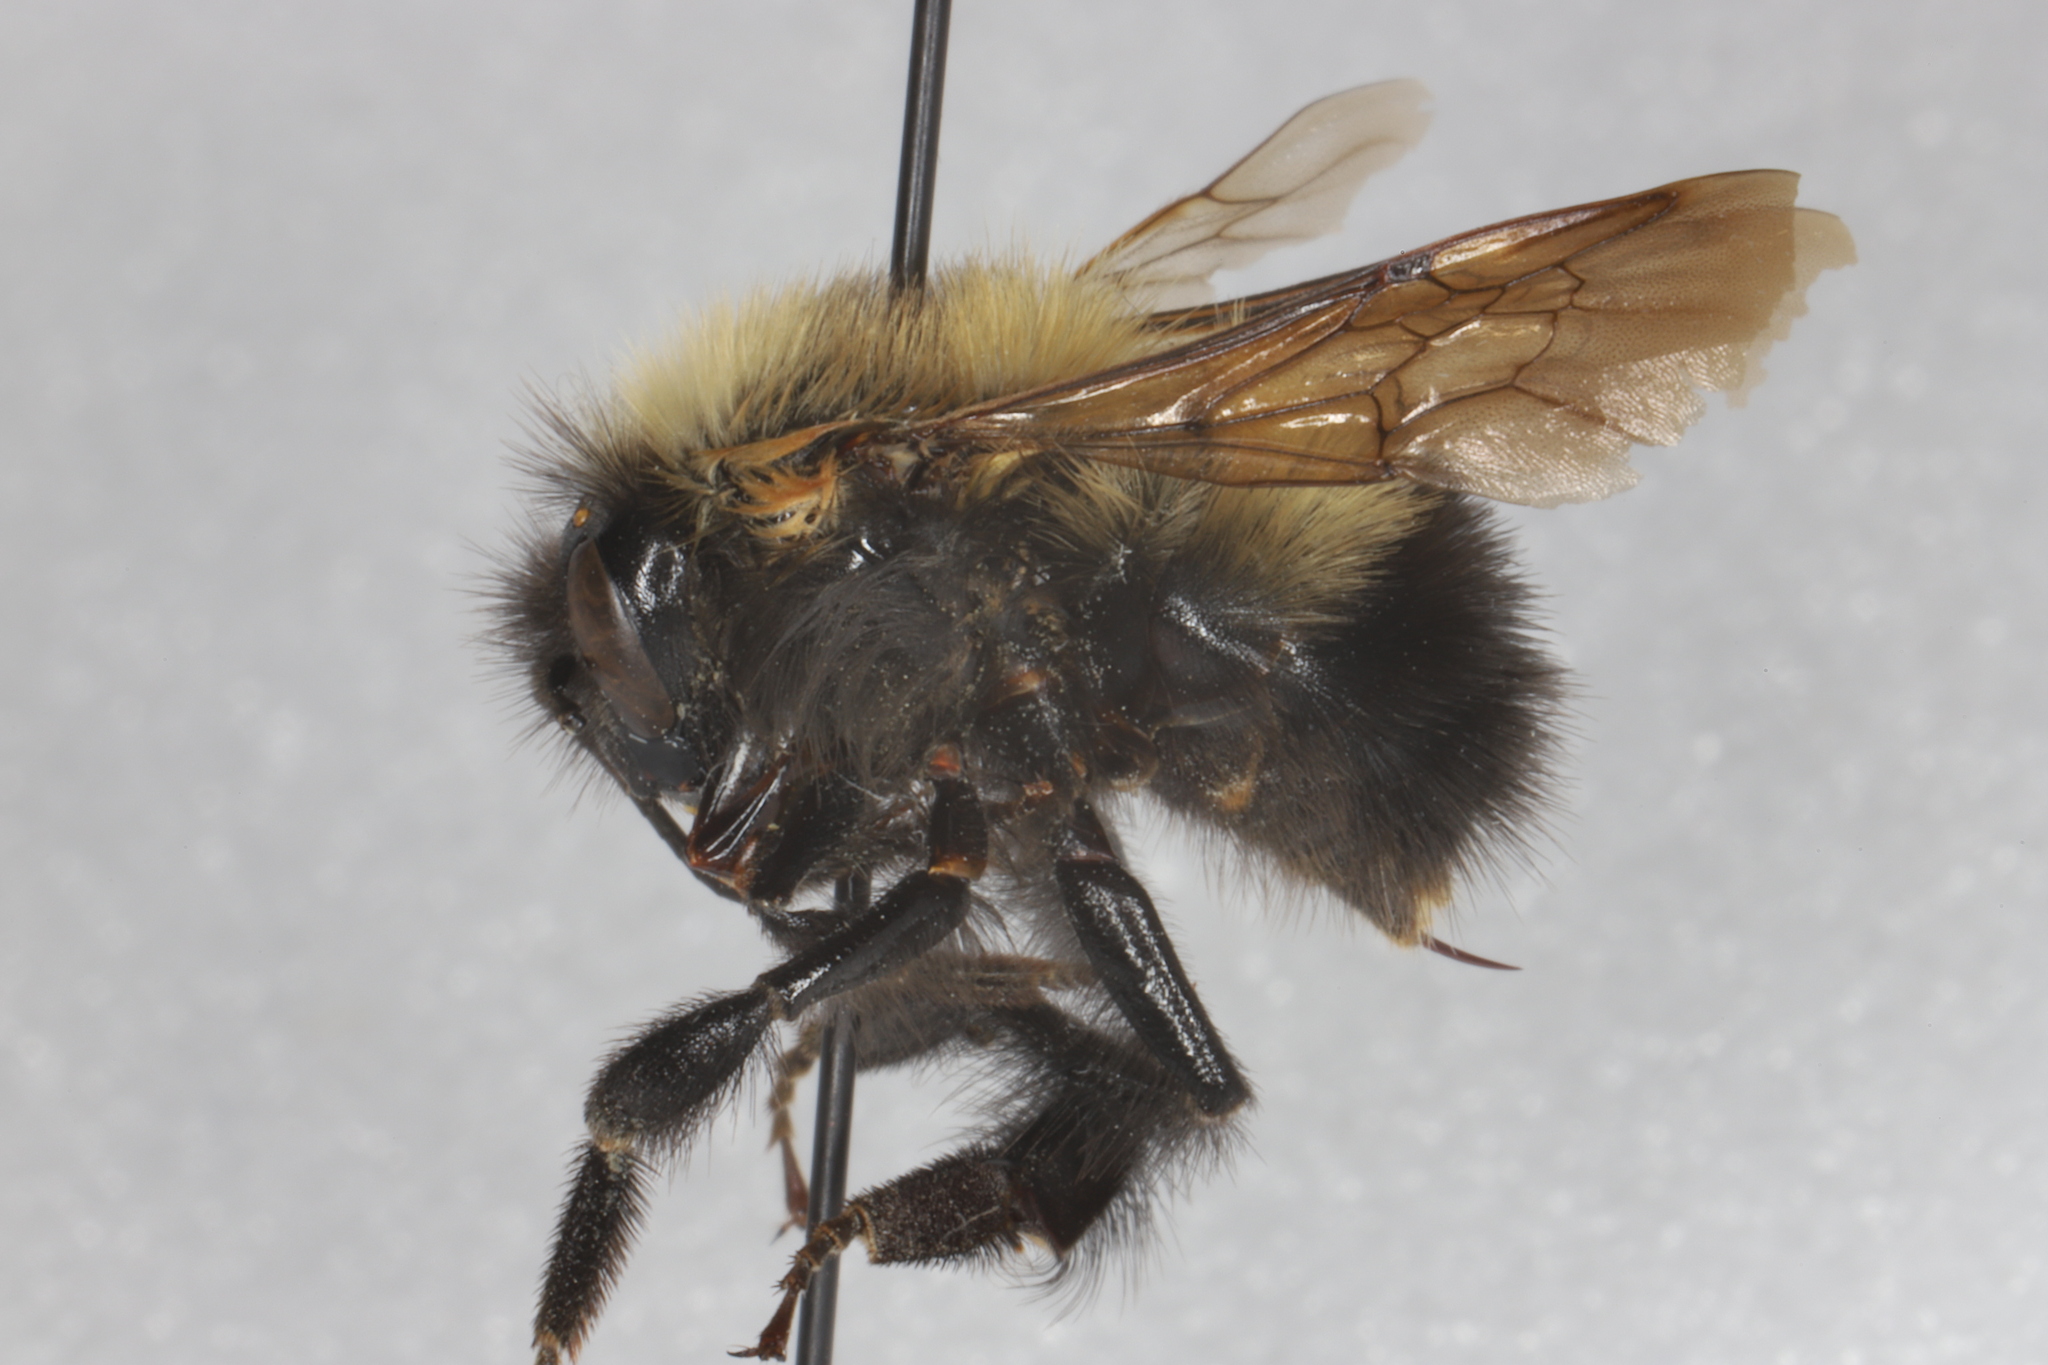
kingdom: Animalia
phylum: Arthropoda
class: Insecta
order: Hymenoptera
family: Apidae
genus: Bombus
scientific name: Bombus perplexus
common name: Confusing bumble bee
